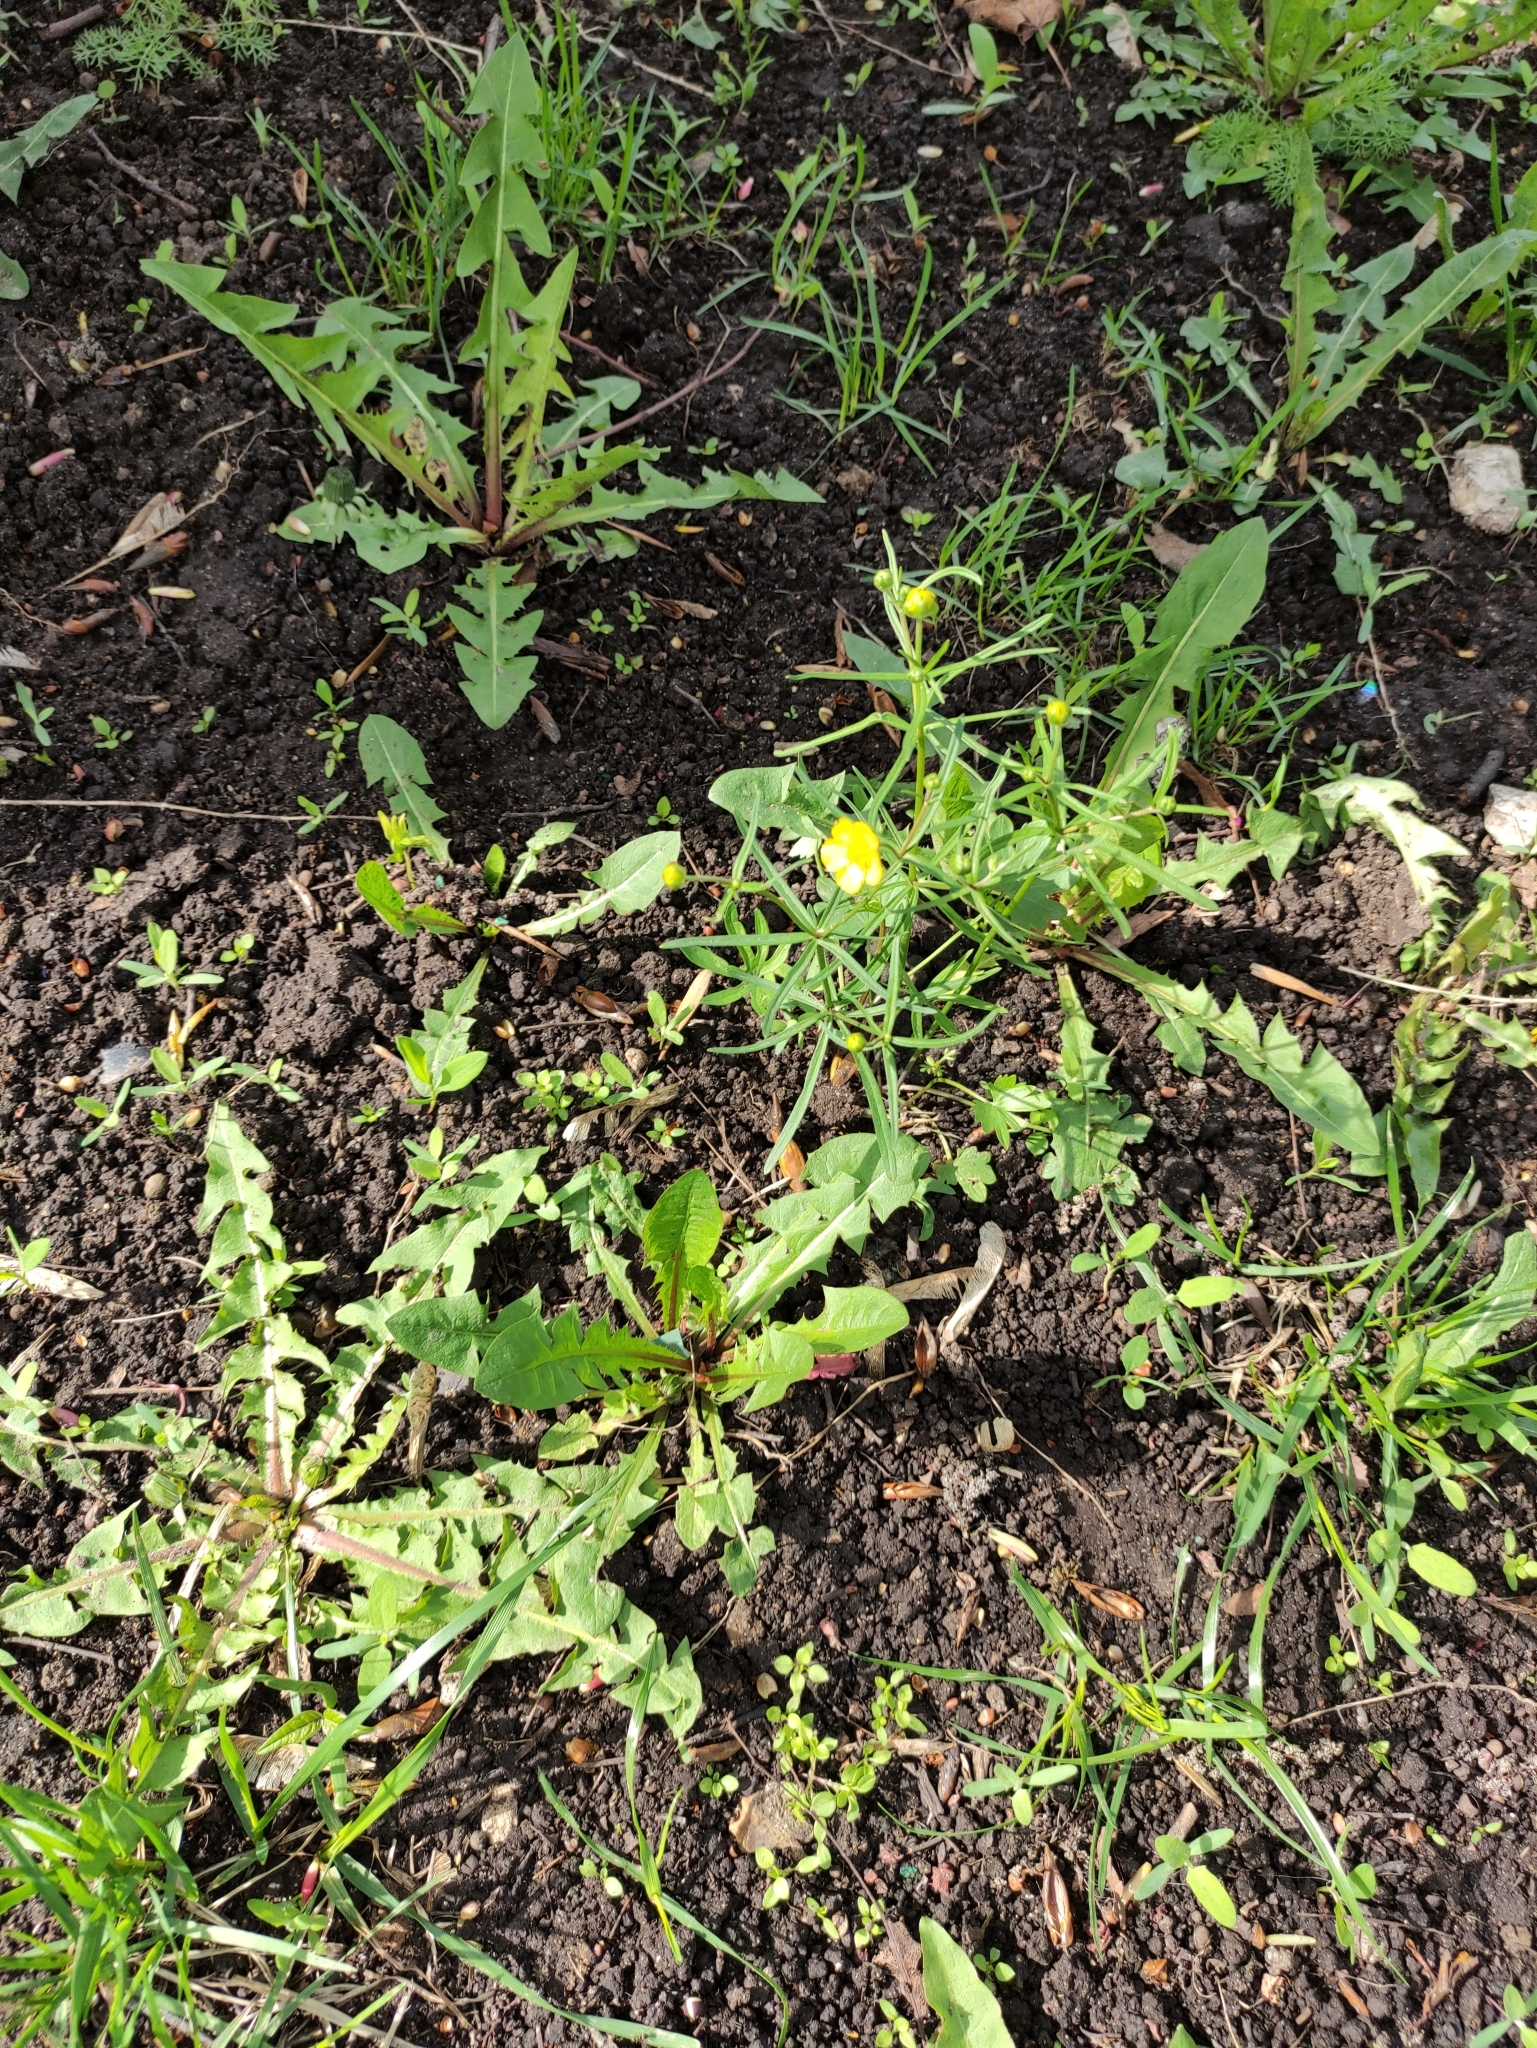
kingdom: Plantae
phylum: Tracheophyta
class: Magnoliopsida
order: Ranunculales
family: Ranunculaceae
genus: Ranunculus
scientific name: Ranunculus auricomus
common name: Goldilocks buttercup
